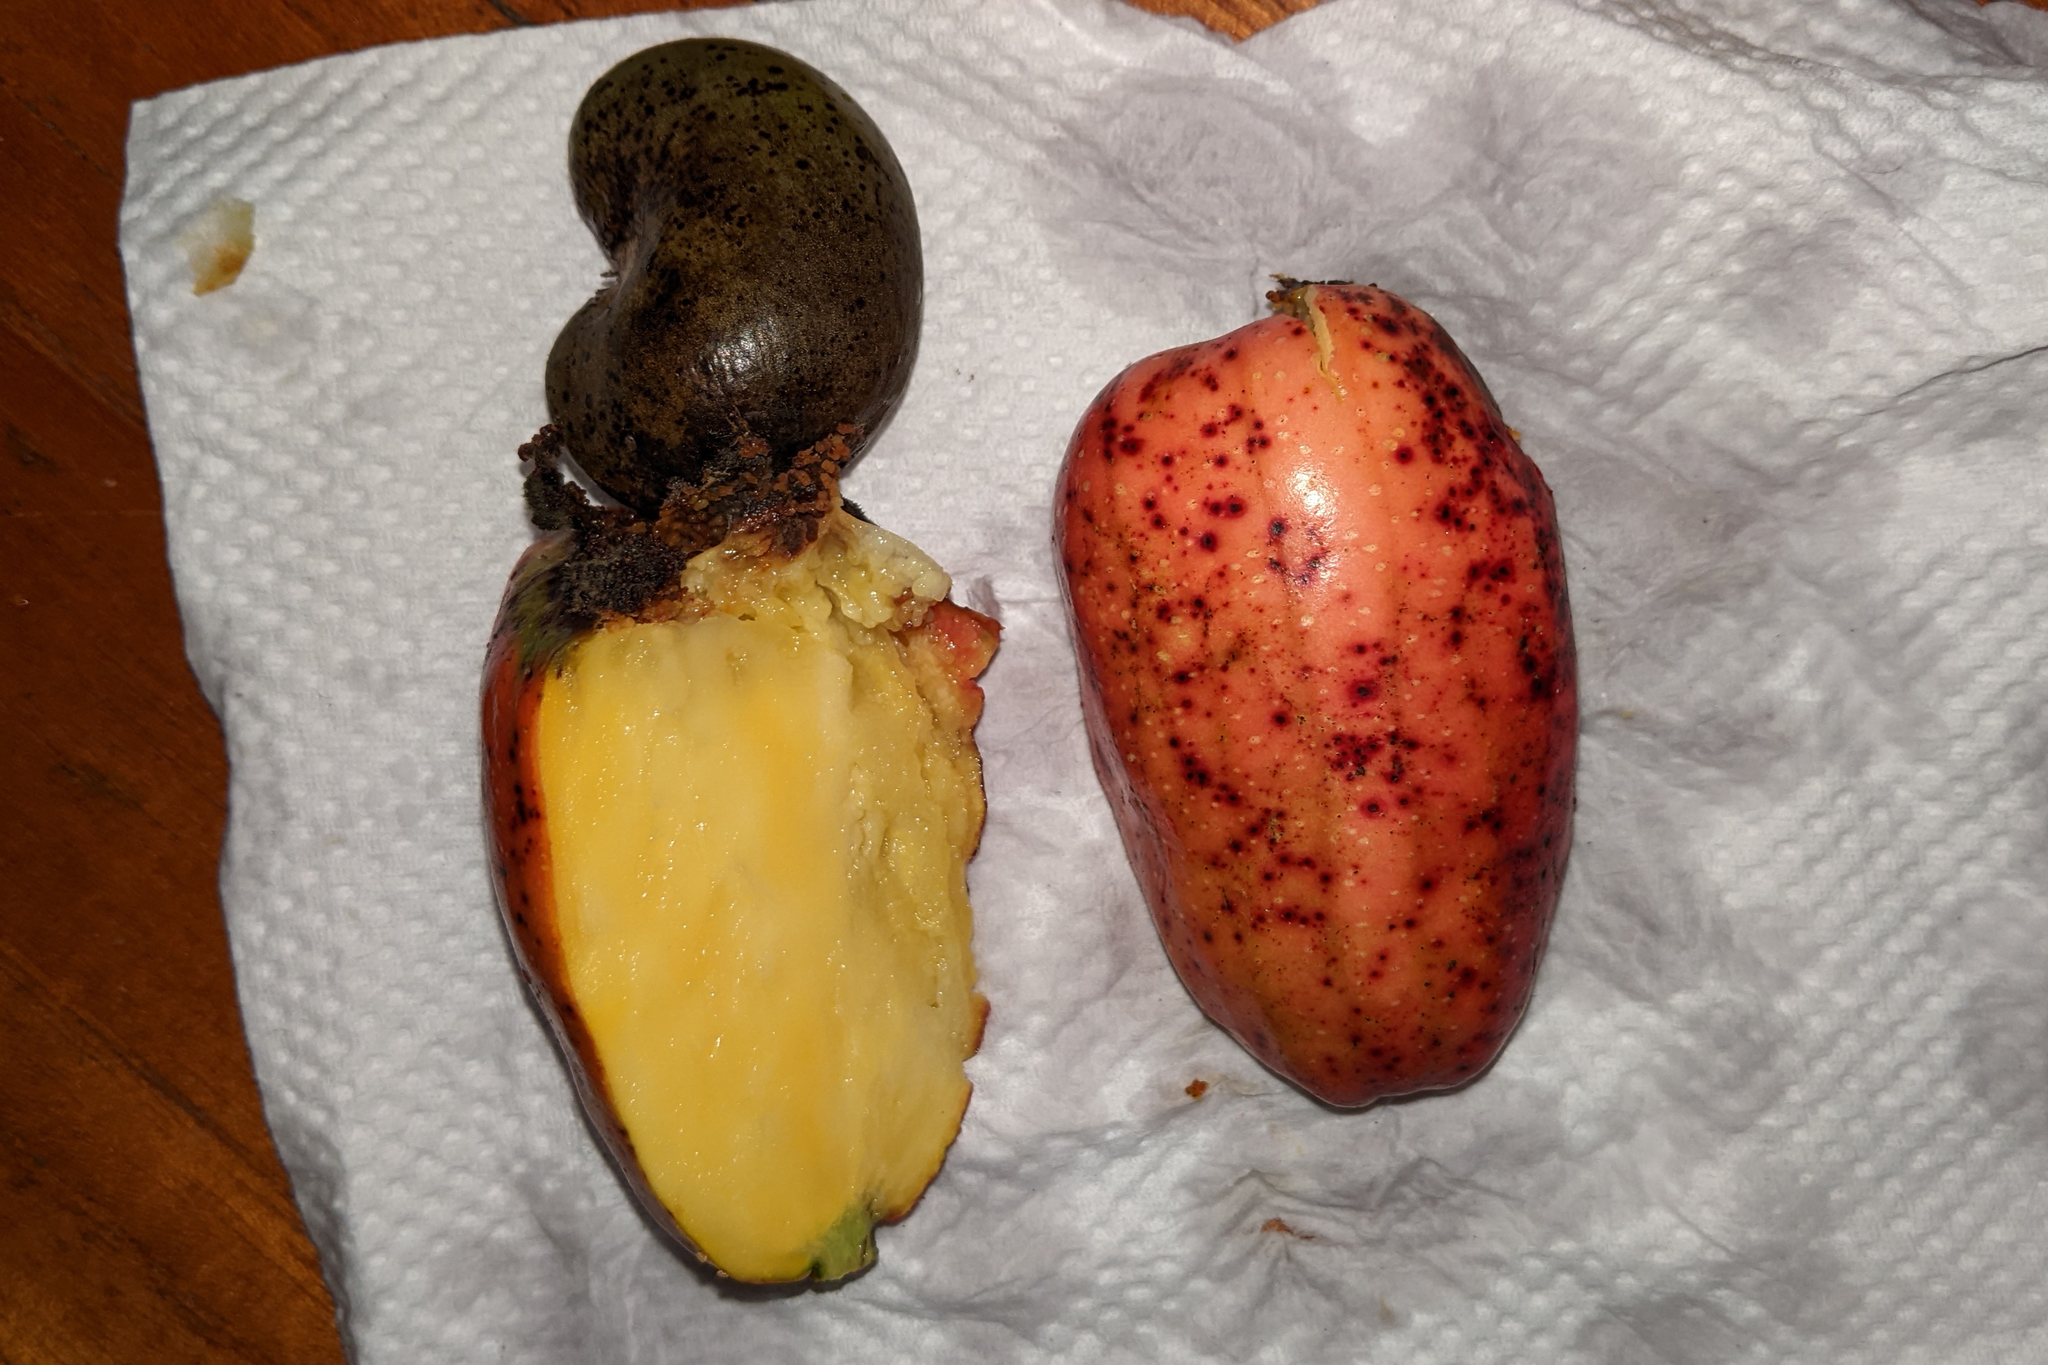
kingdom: Plantae
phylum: Tracheophyta
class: Magnoliopsida
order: Sapindales
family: Anacardiaceae
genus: Anacardium
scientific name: Anacardium occidentale
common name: Cashew
